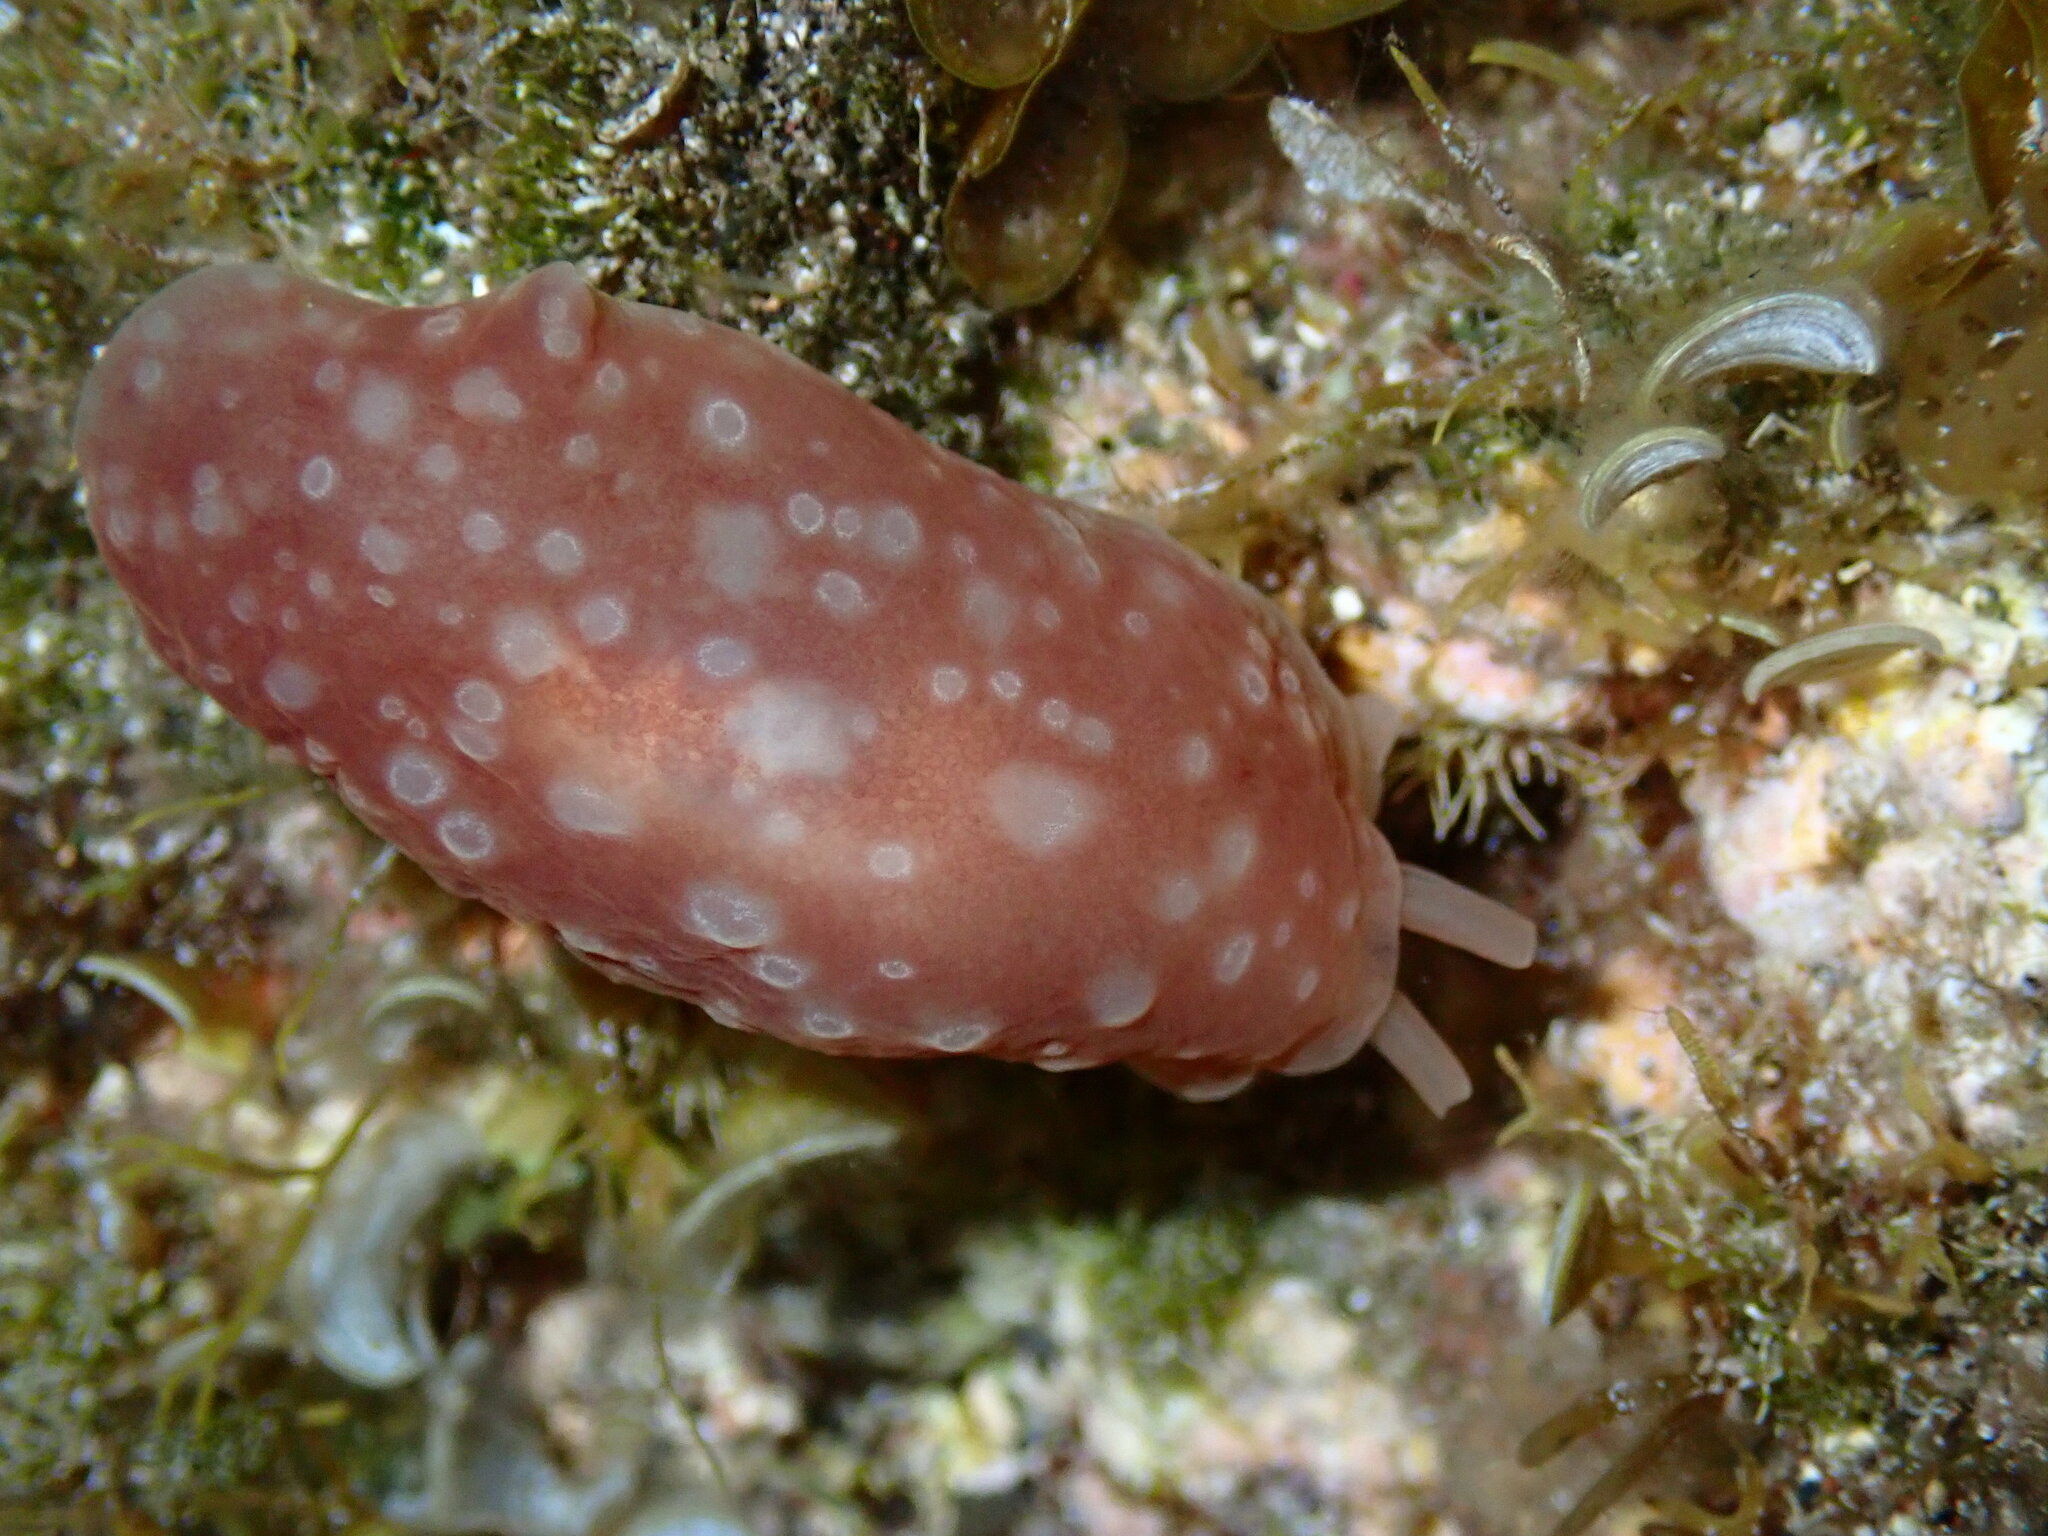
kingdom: Animalia
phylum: Mollusca
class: Gastropoda
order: Pleurobranchida
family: Pleurobranchidae
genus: Berthella
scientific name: Berthella ocellata
